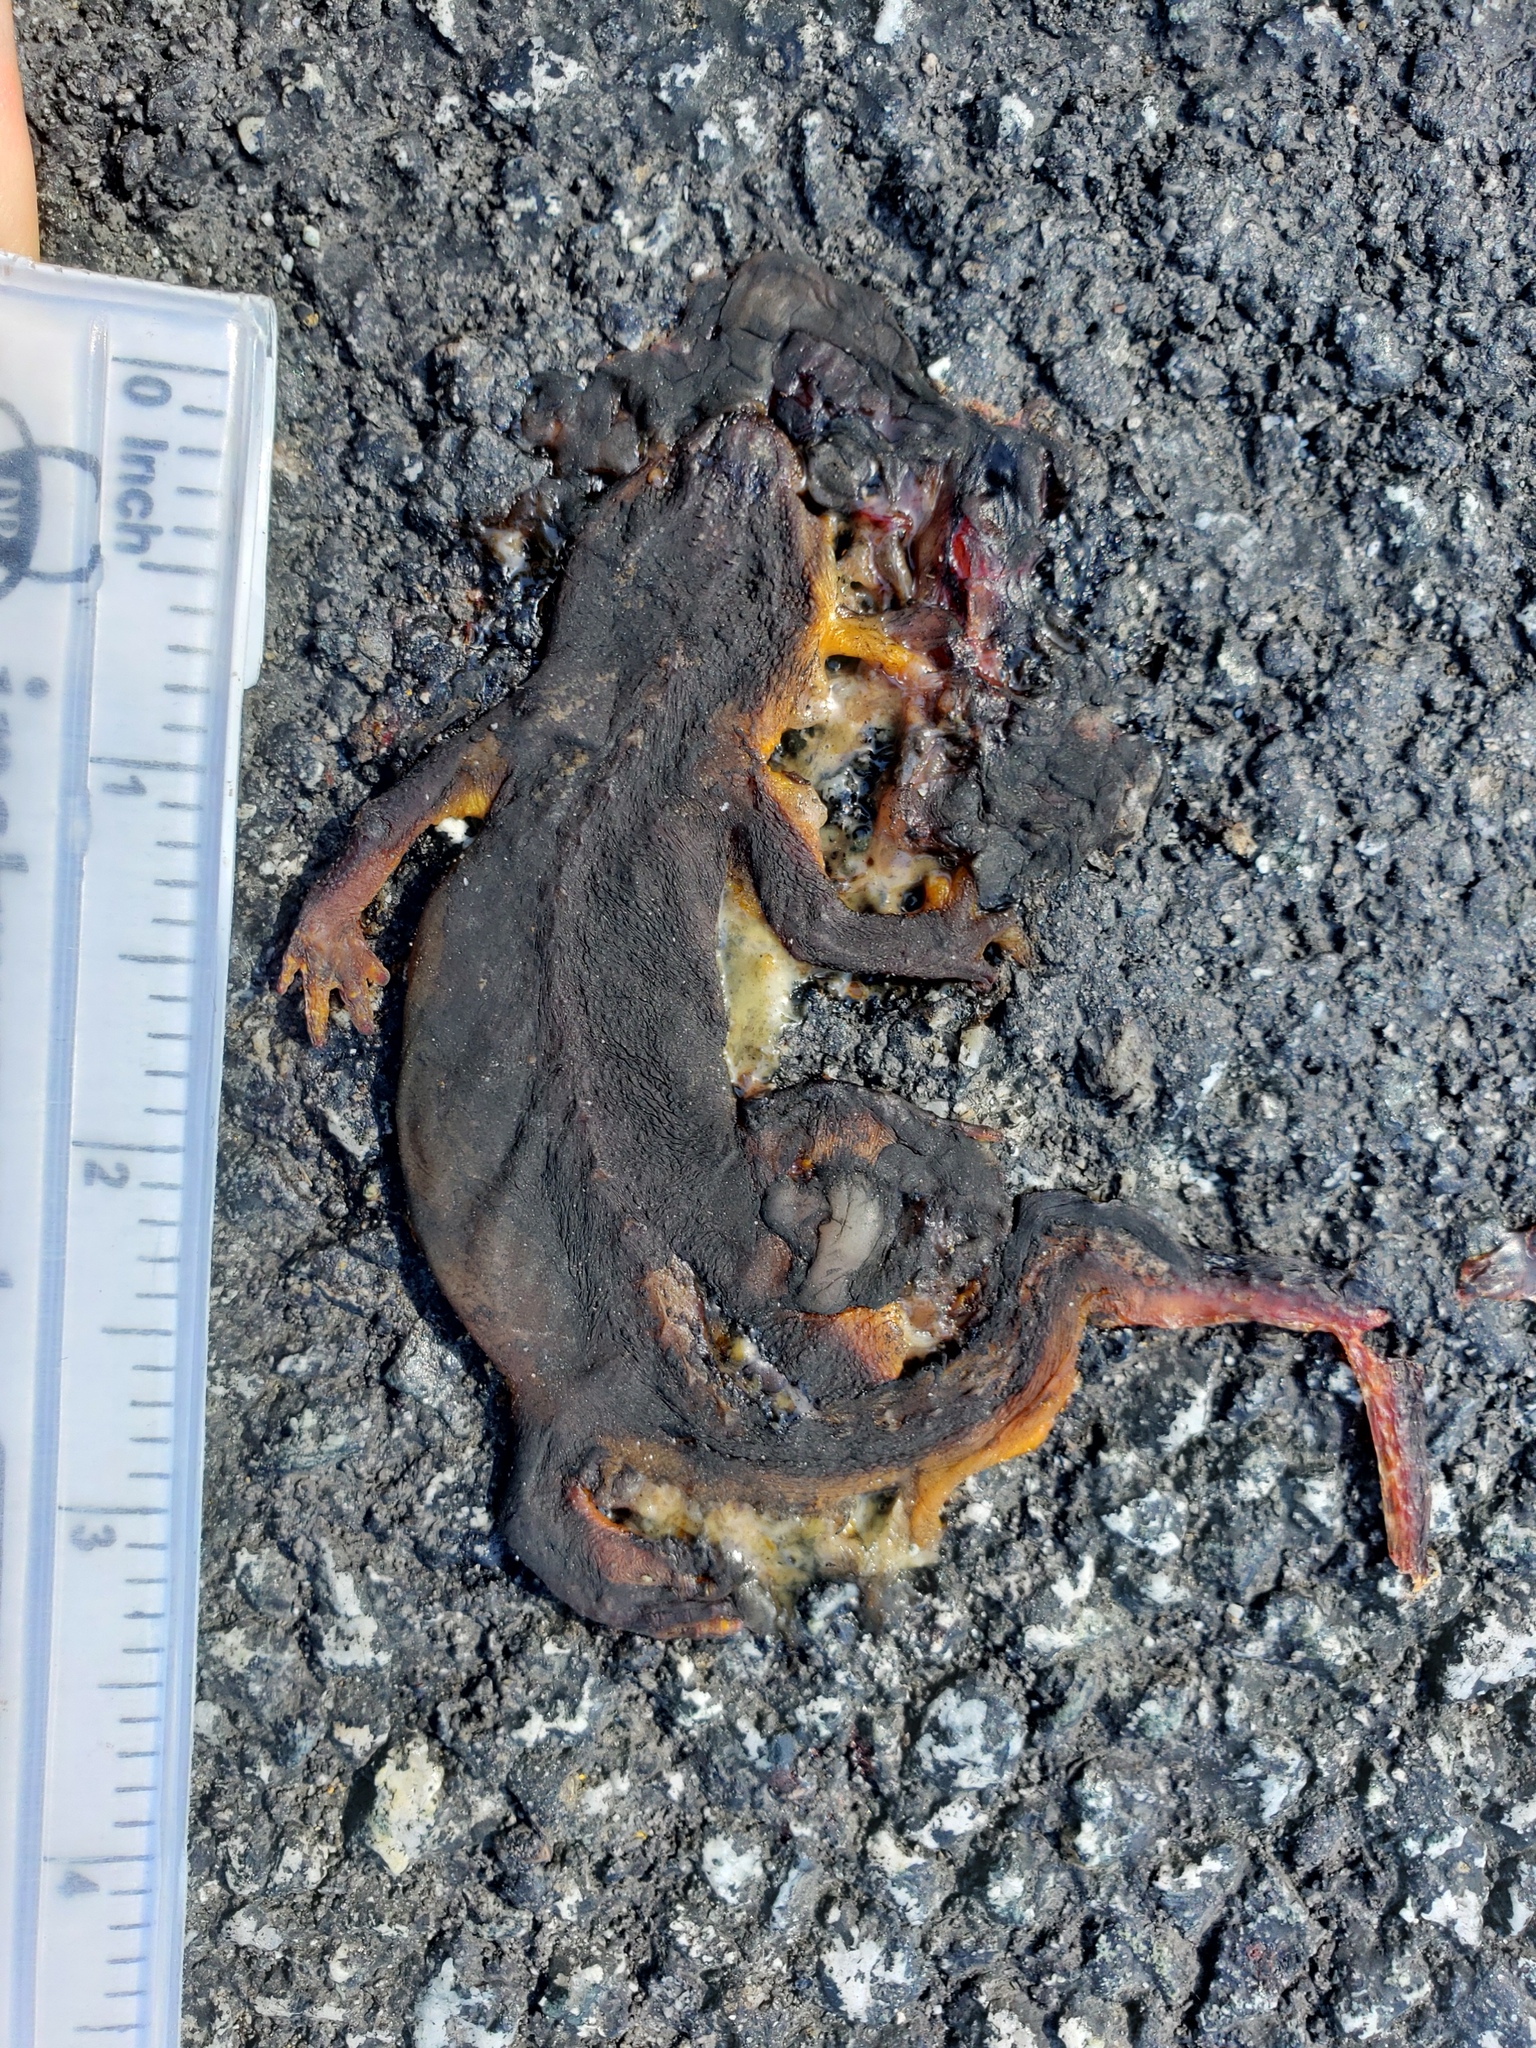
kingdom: Animalia
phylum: Chordata
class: Amphibia
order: Caudata
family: Salamandridae
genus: Taricha
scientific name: Taricha
